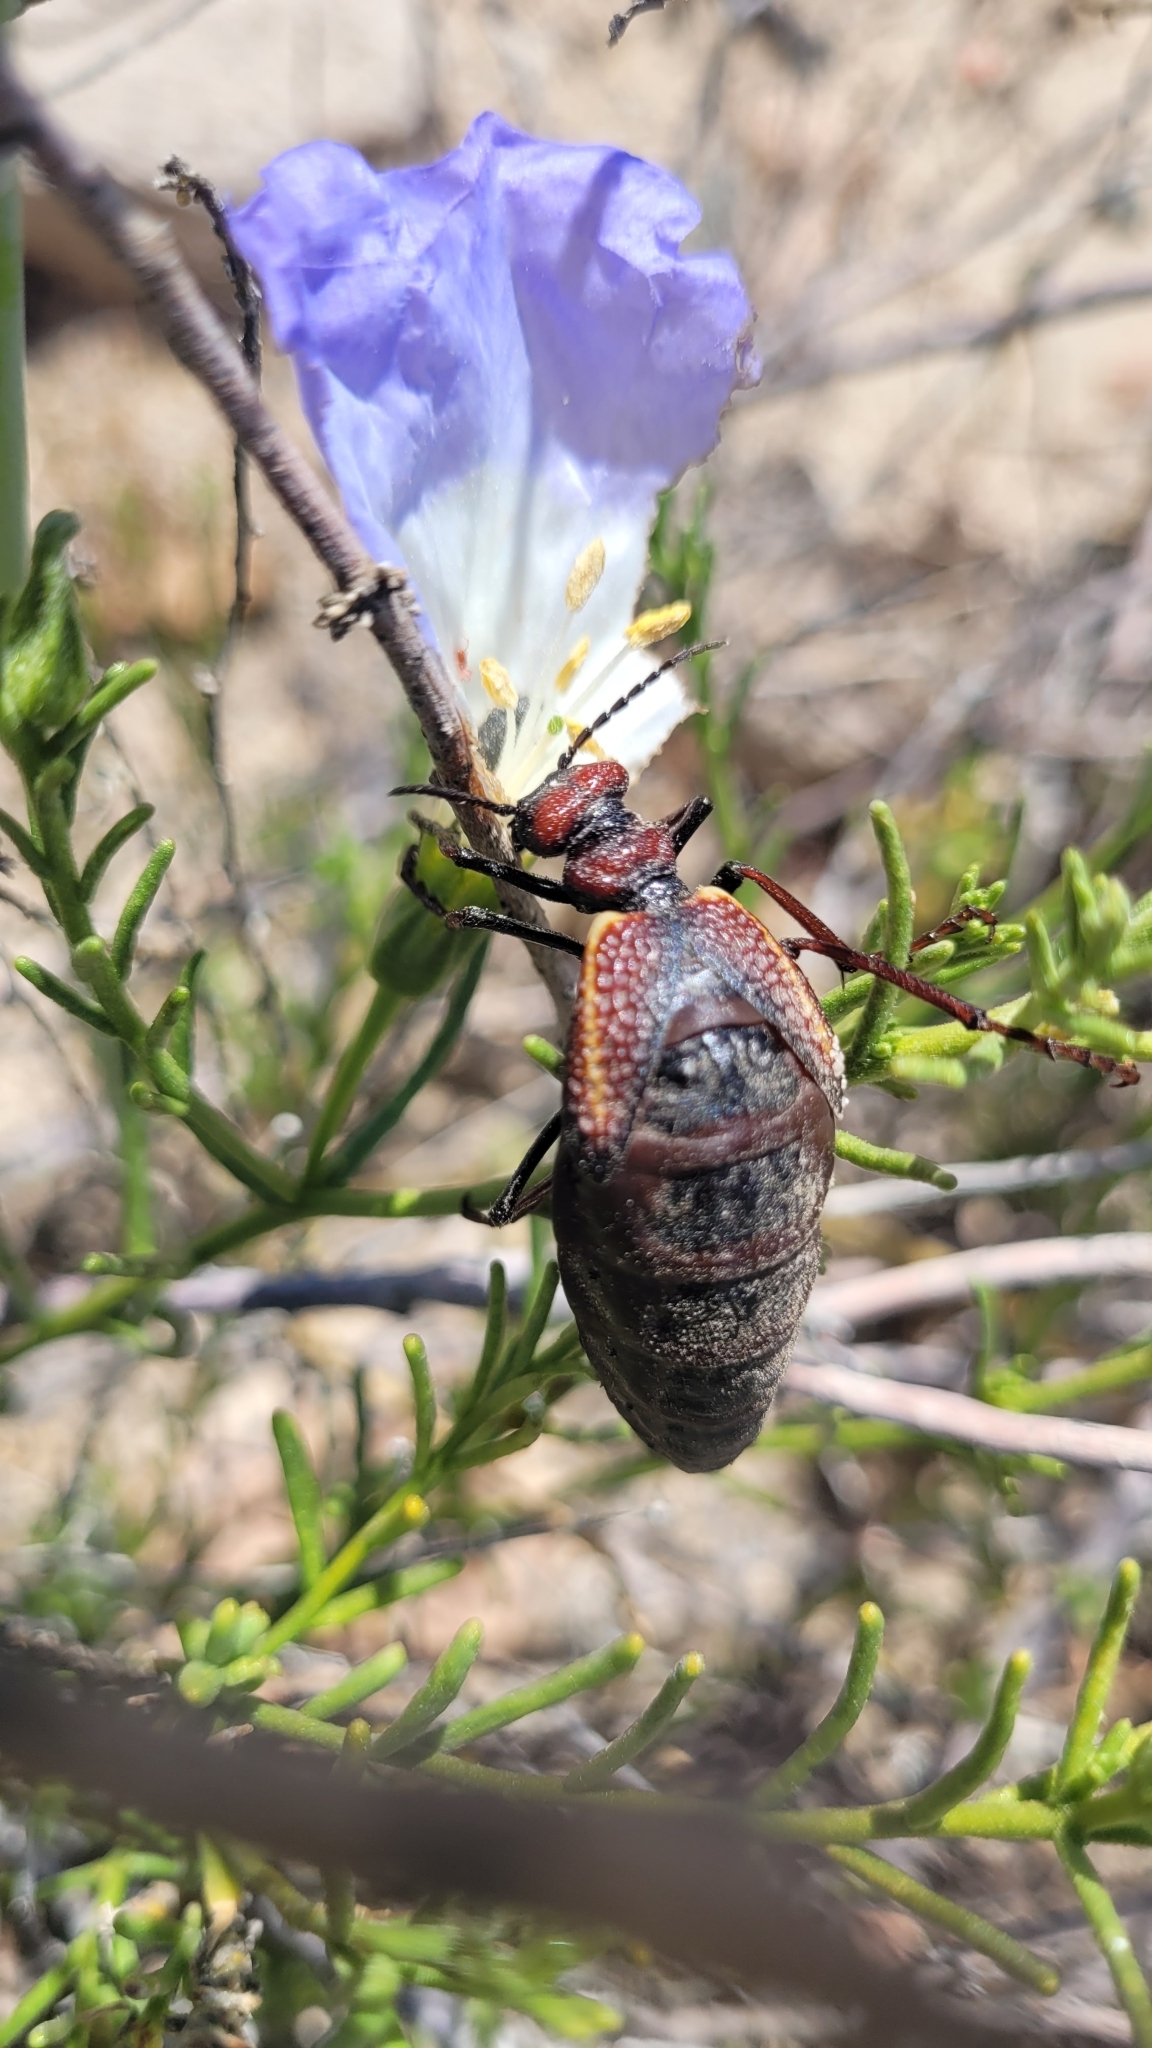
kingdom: Animalia
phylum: Arthropoda
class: Insecta
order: Coleoptera
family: Meloidae
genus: Pseudomeloe
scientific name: Pseudomeloe
